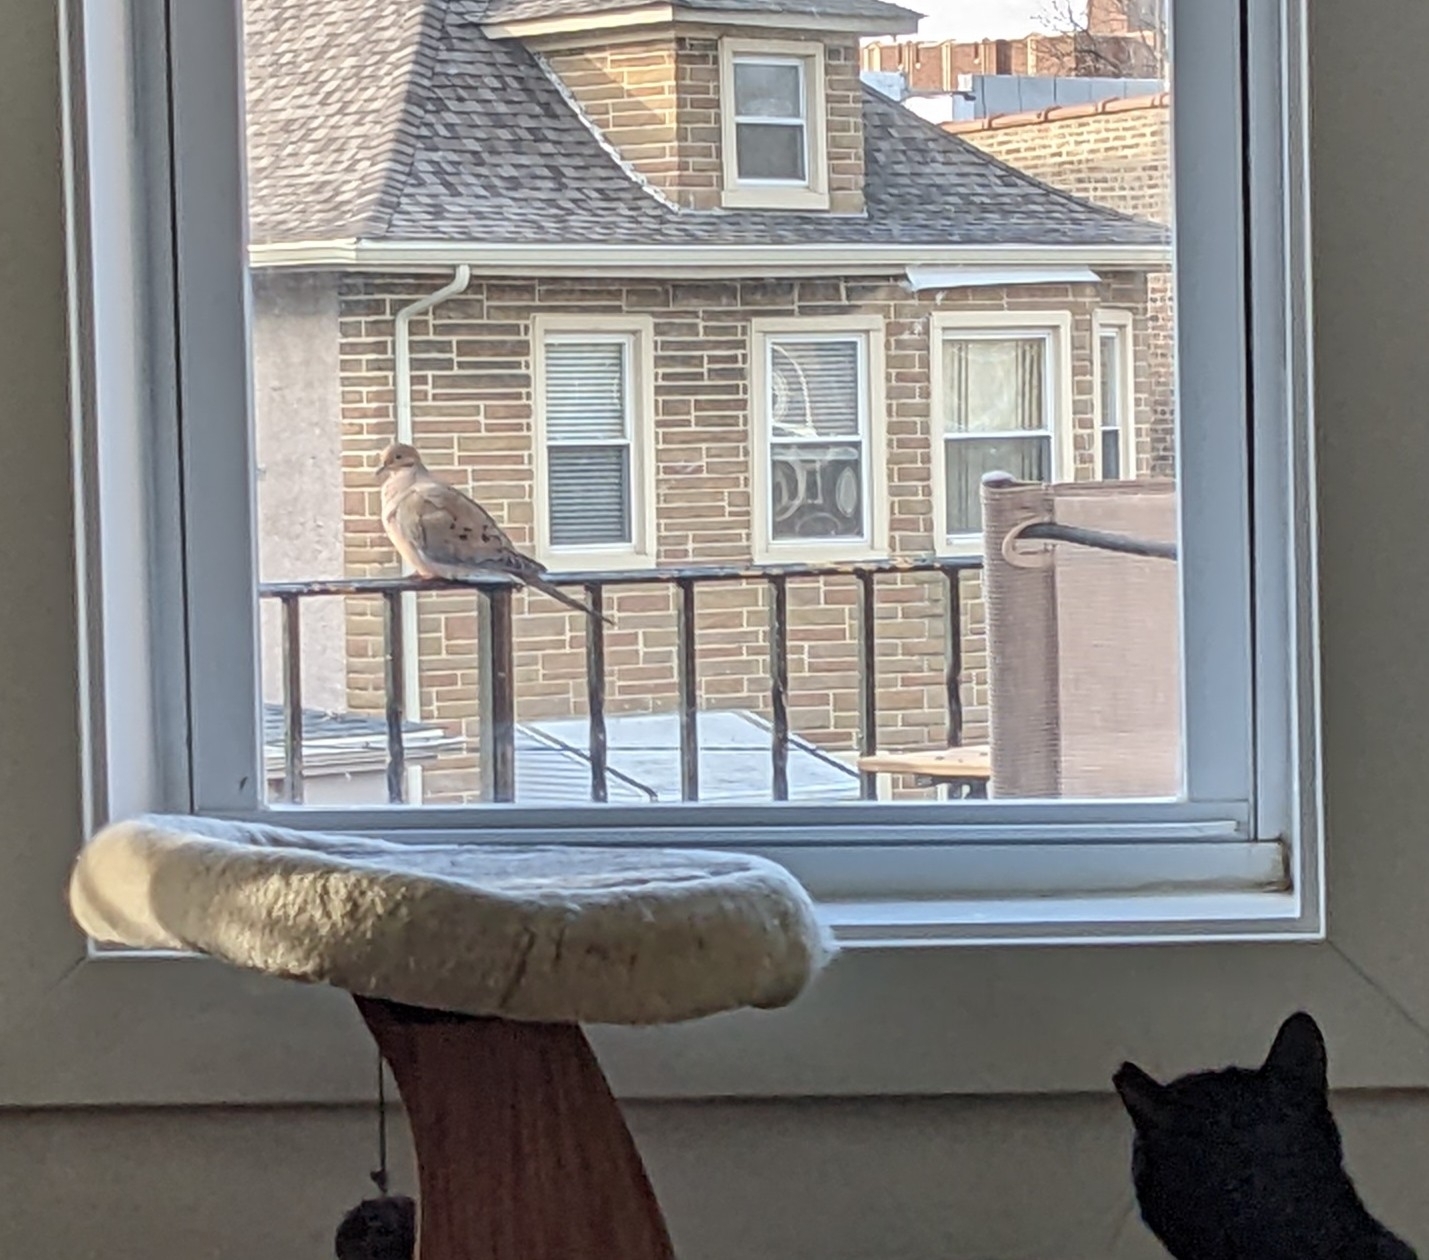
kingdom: Animalia
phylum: Chordata
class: Aves
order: Columbiformes
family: Columbidae
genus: Zenaida
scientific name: Zenaida macroura
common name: Mourning dove
